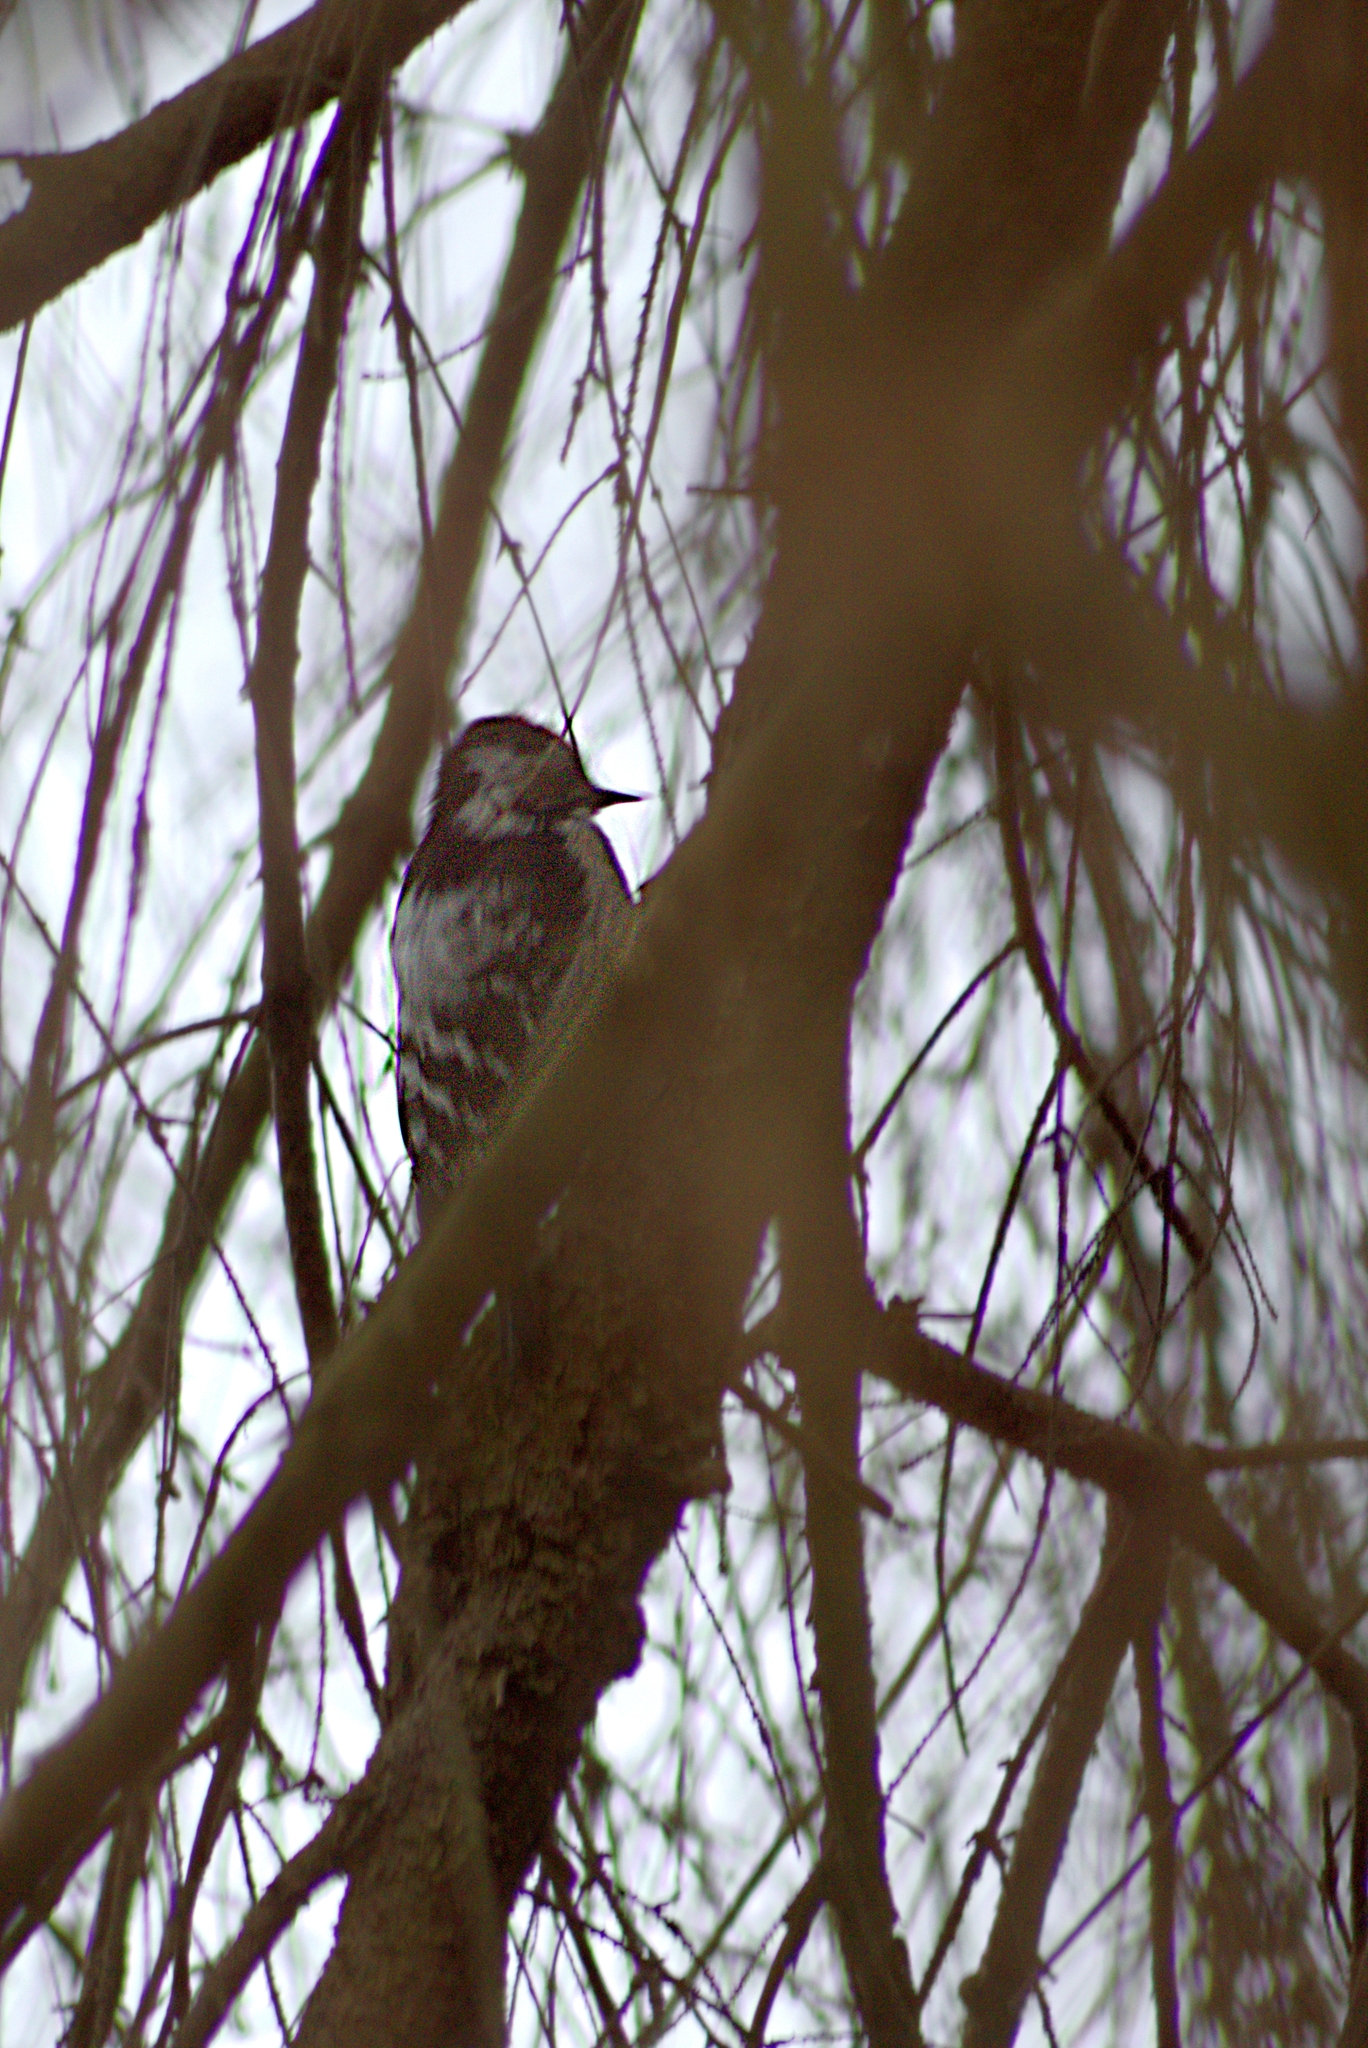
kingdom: Animalia
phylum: Chordata
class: Aves
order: Piciformes
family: Picidae
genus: Dryobates
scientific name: Dryobates minor
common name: Lesser spotted woodpecker
